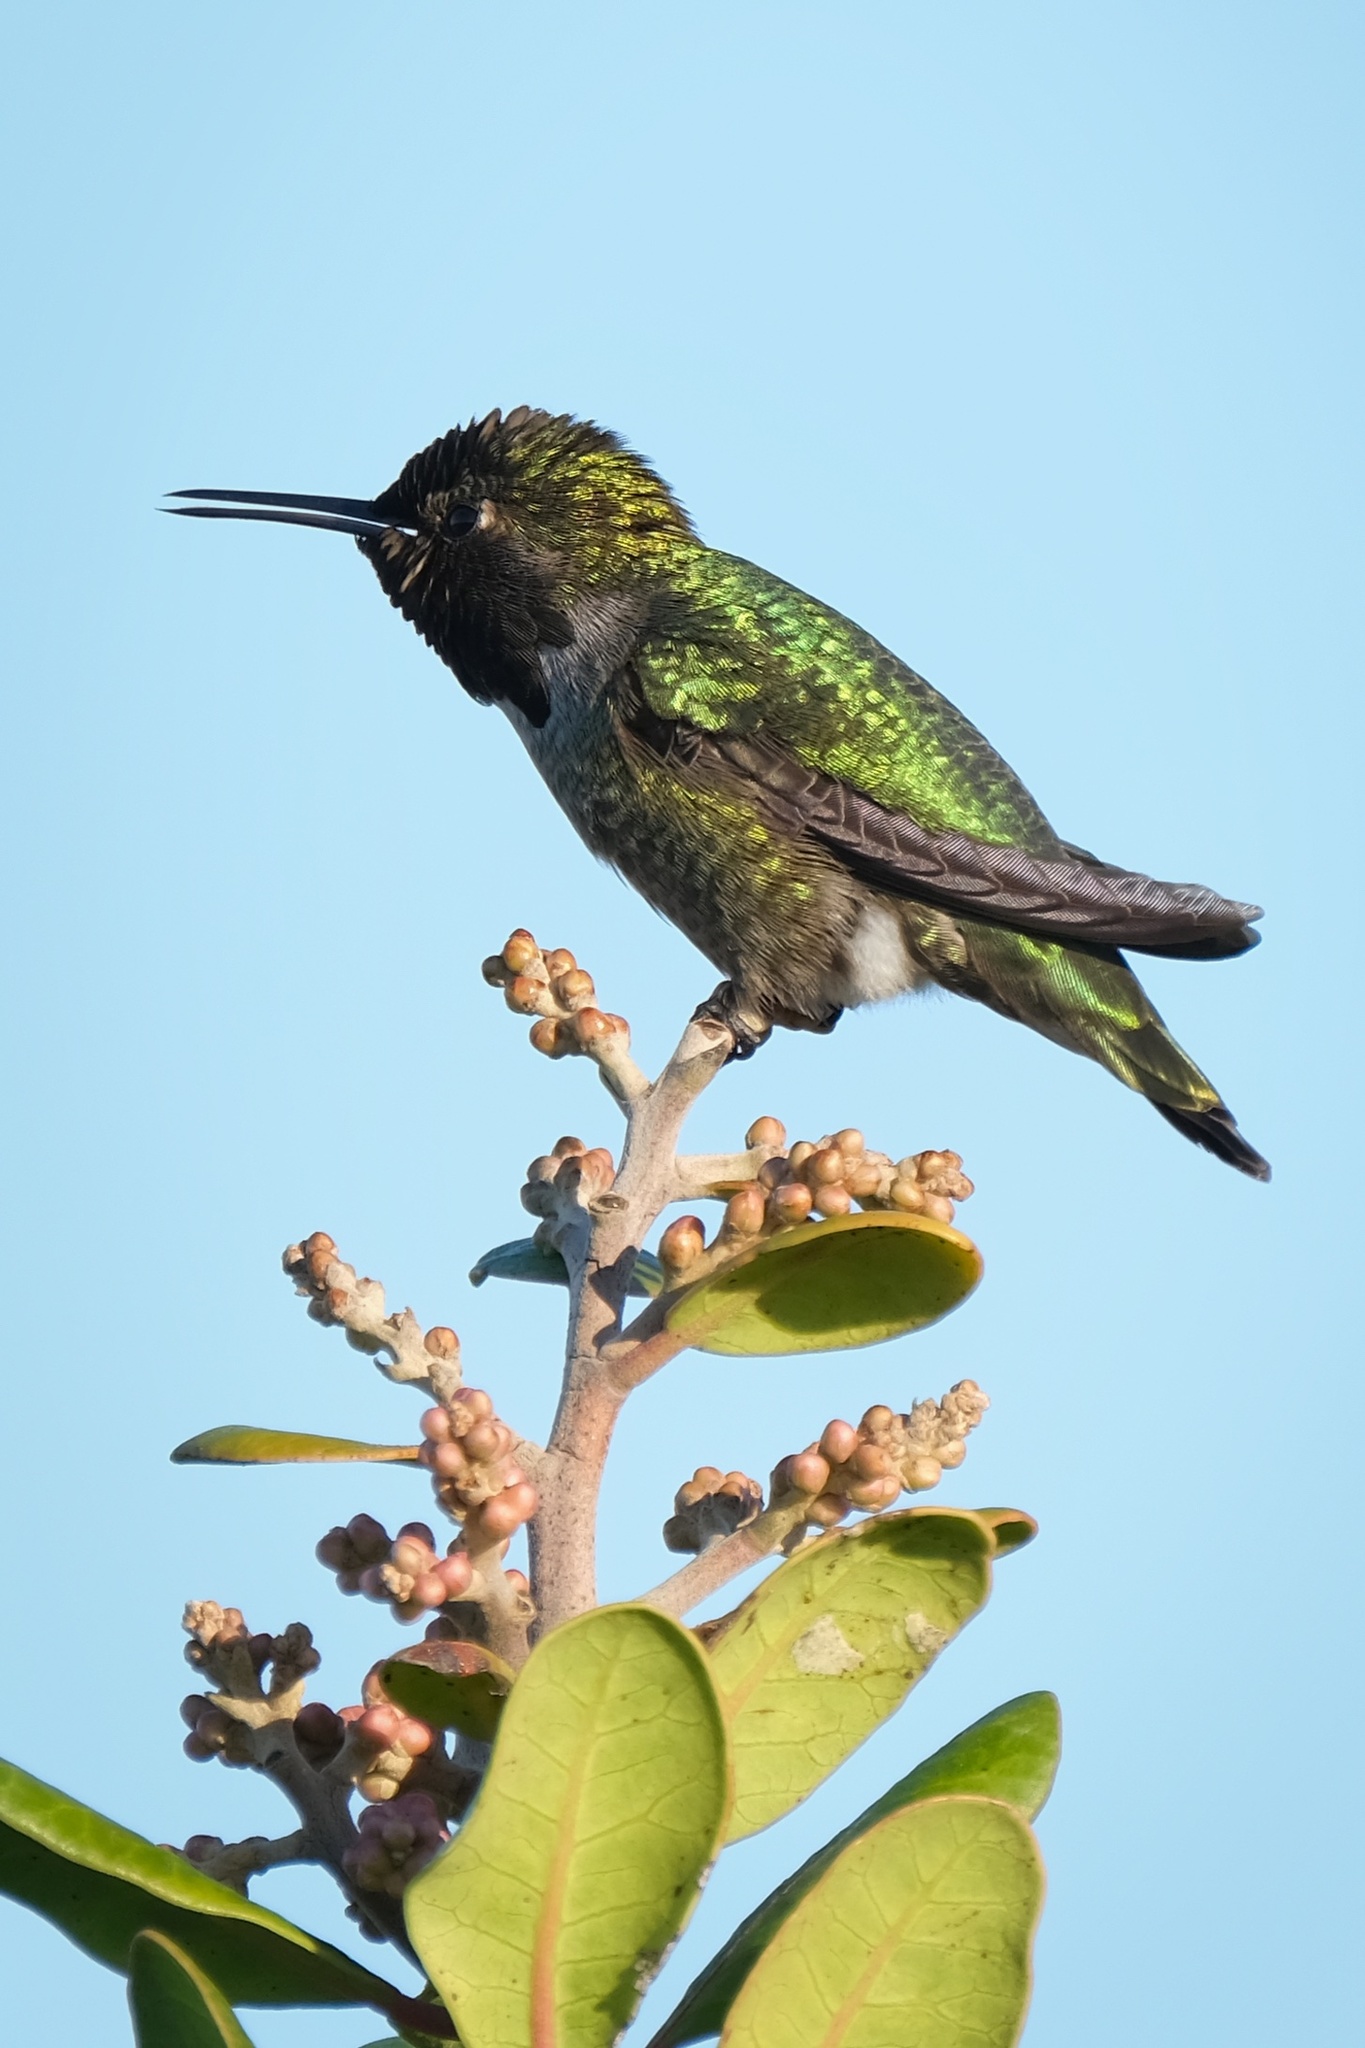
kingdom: Animalia
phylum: Chordata
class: Aves
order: Apodiformes
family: Trochilidae
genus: Calypte
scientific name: Calypte anna
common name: Anna's hummingbird
